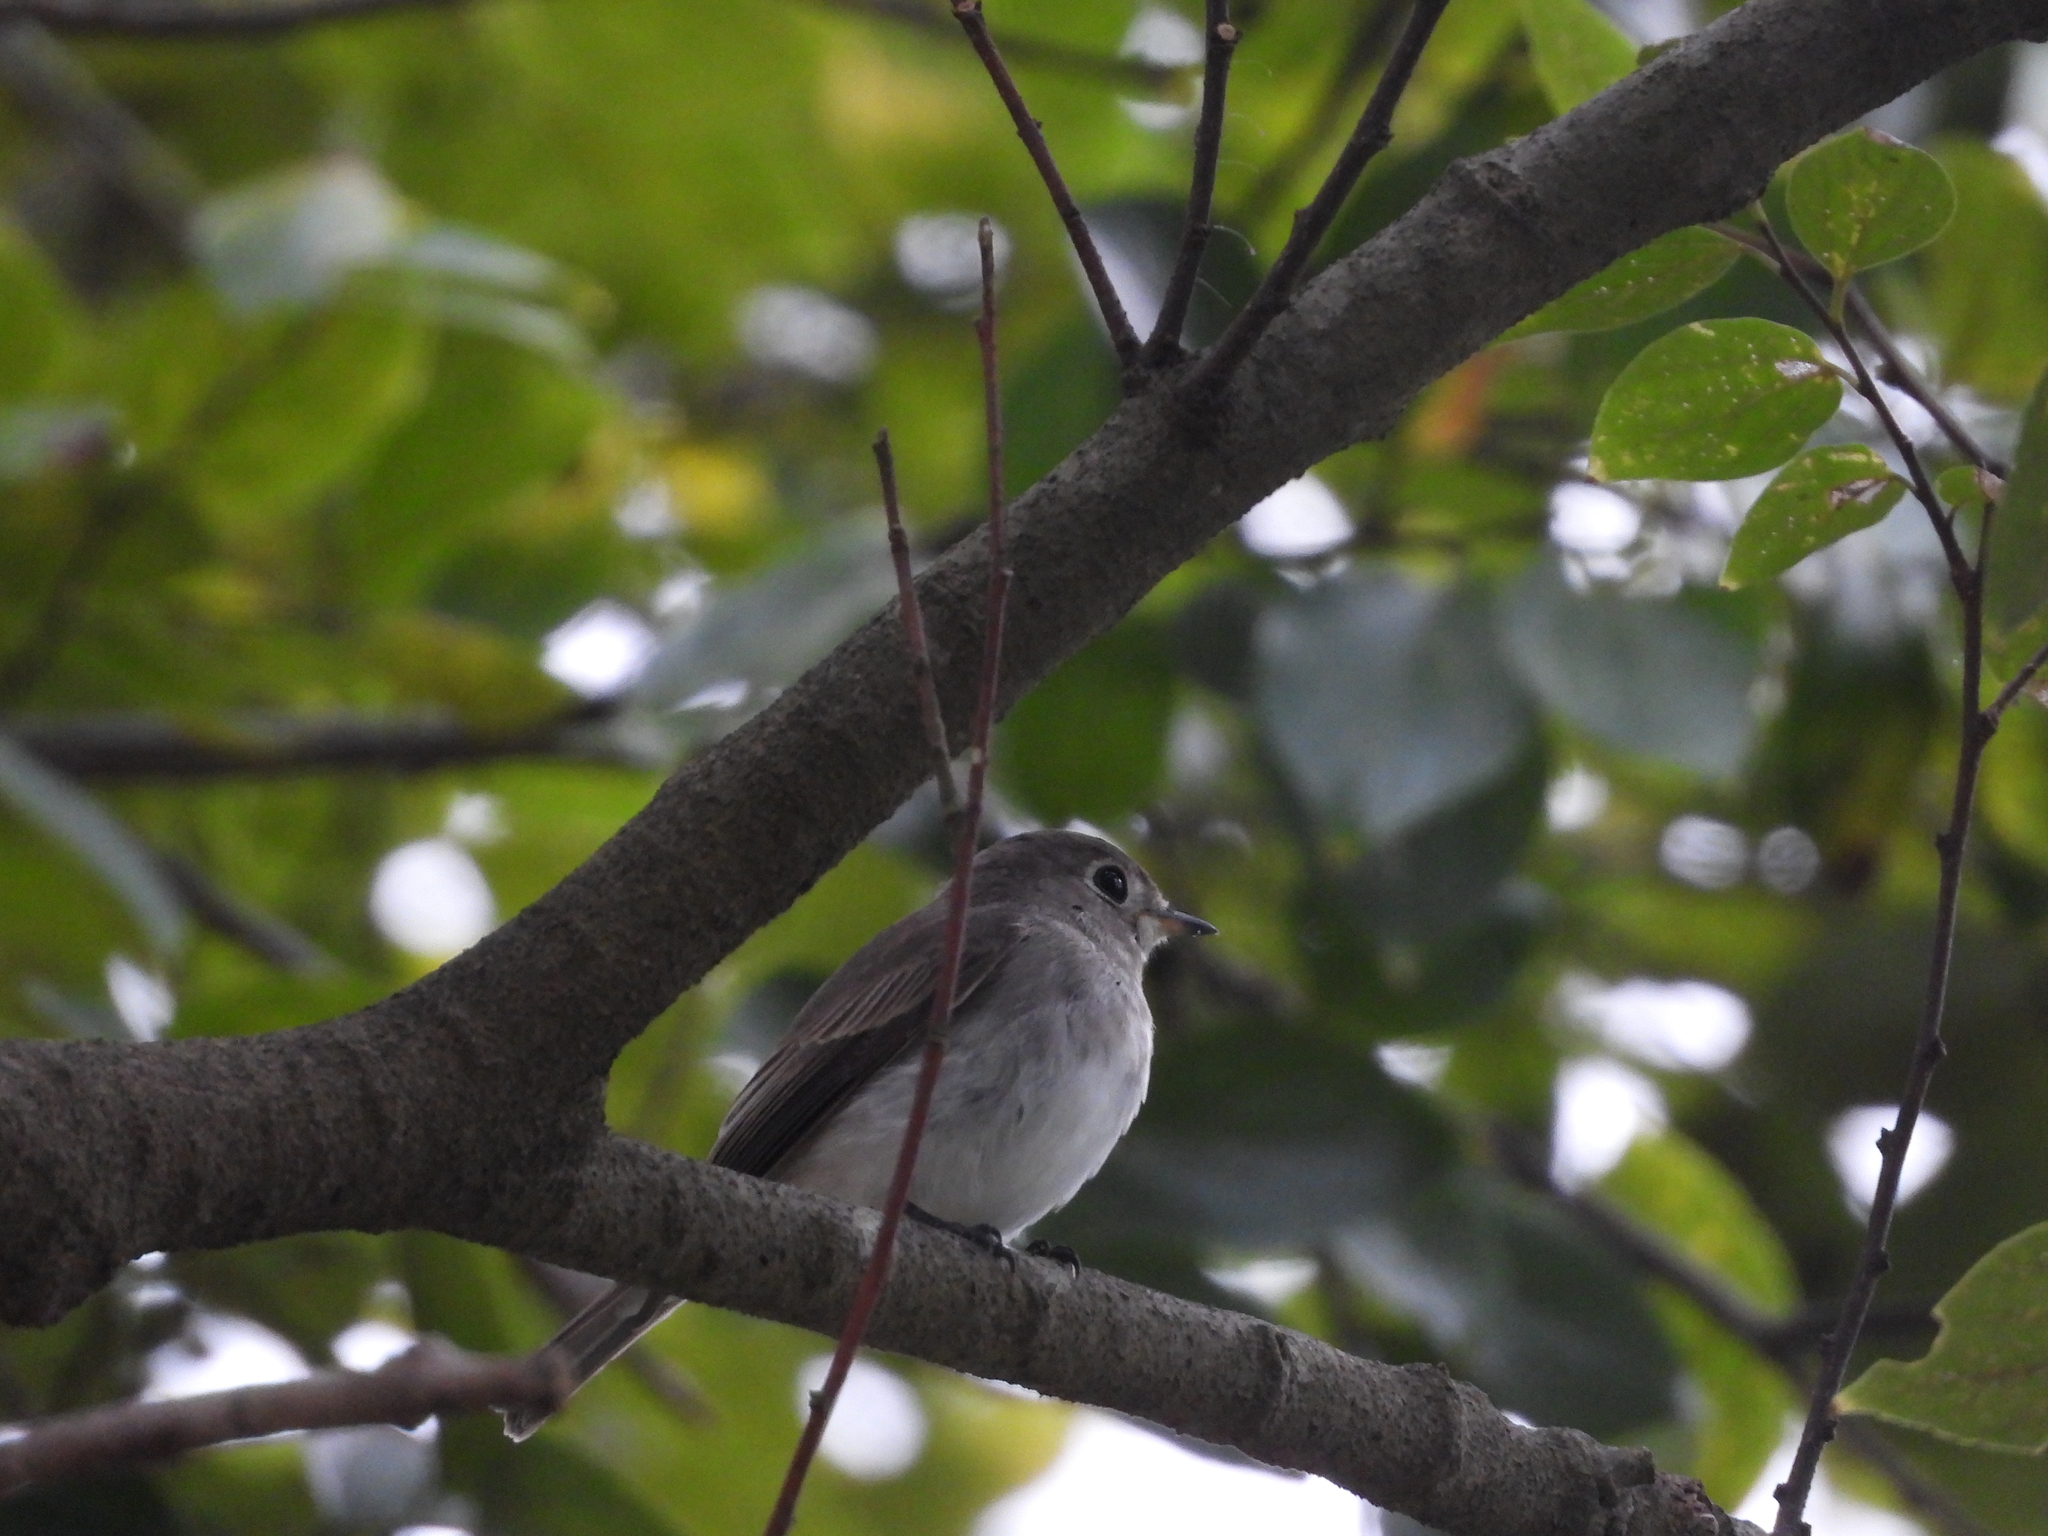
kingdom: Animalia
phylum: Chordata
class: Aves
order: Passeriformes
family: Muscicapidae
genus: Muscicapa
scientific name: Muscicapa latirostris
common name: Asian brown flycatcher
